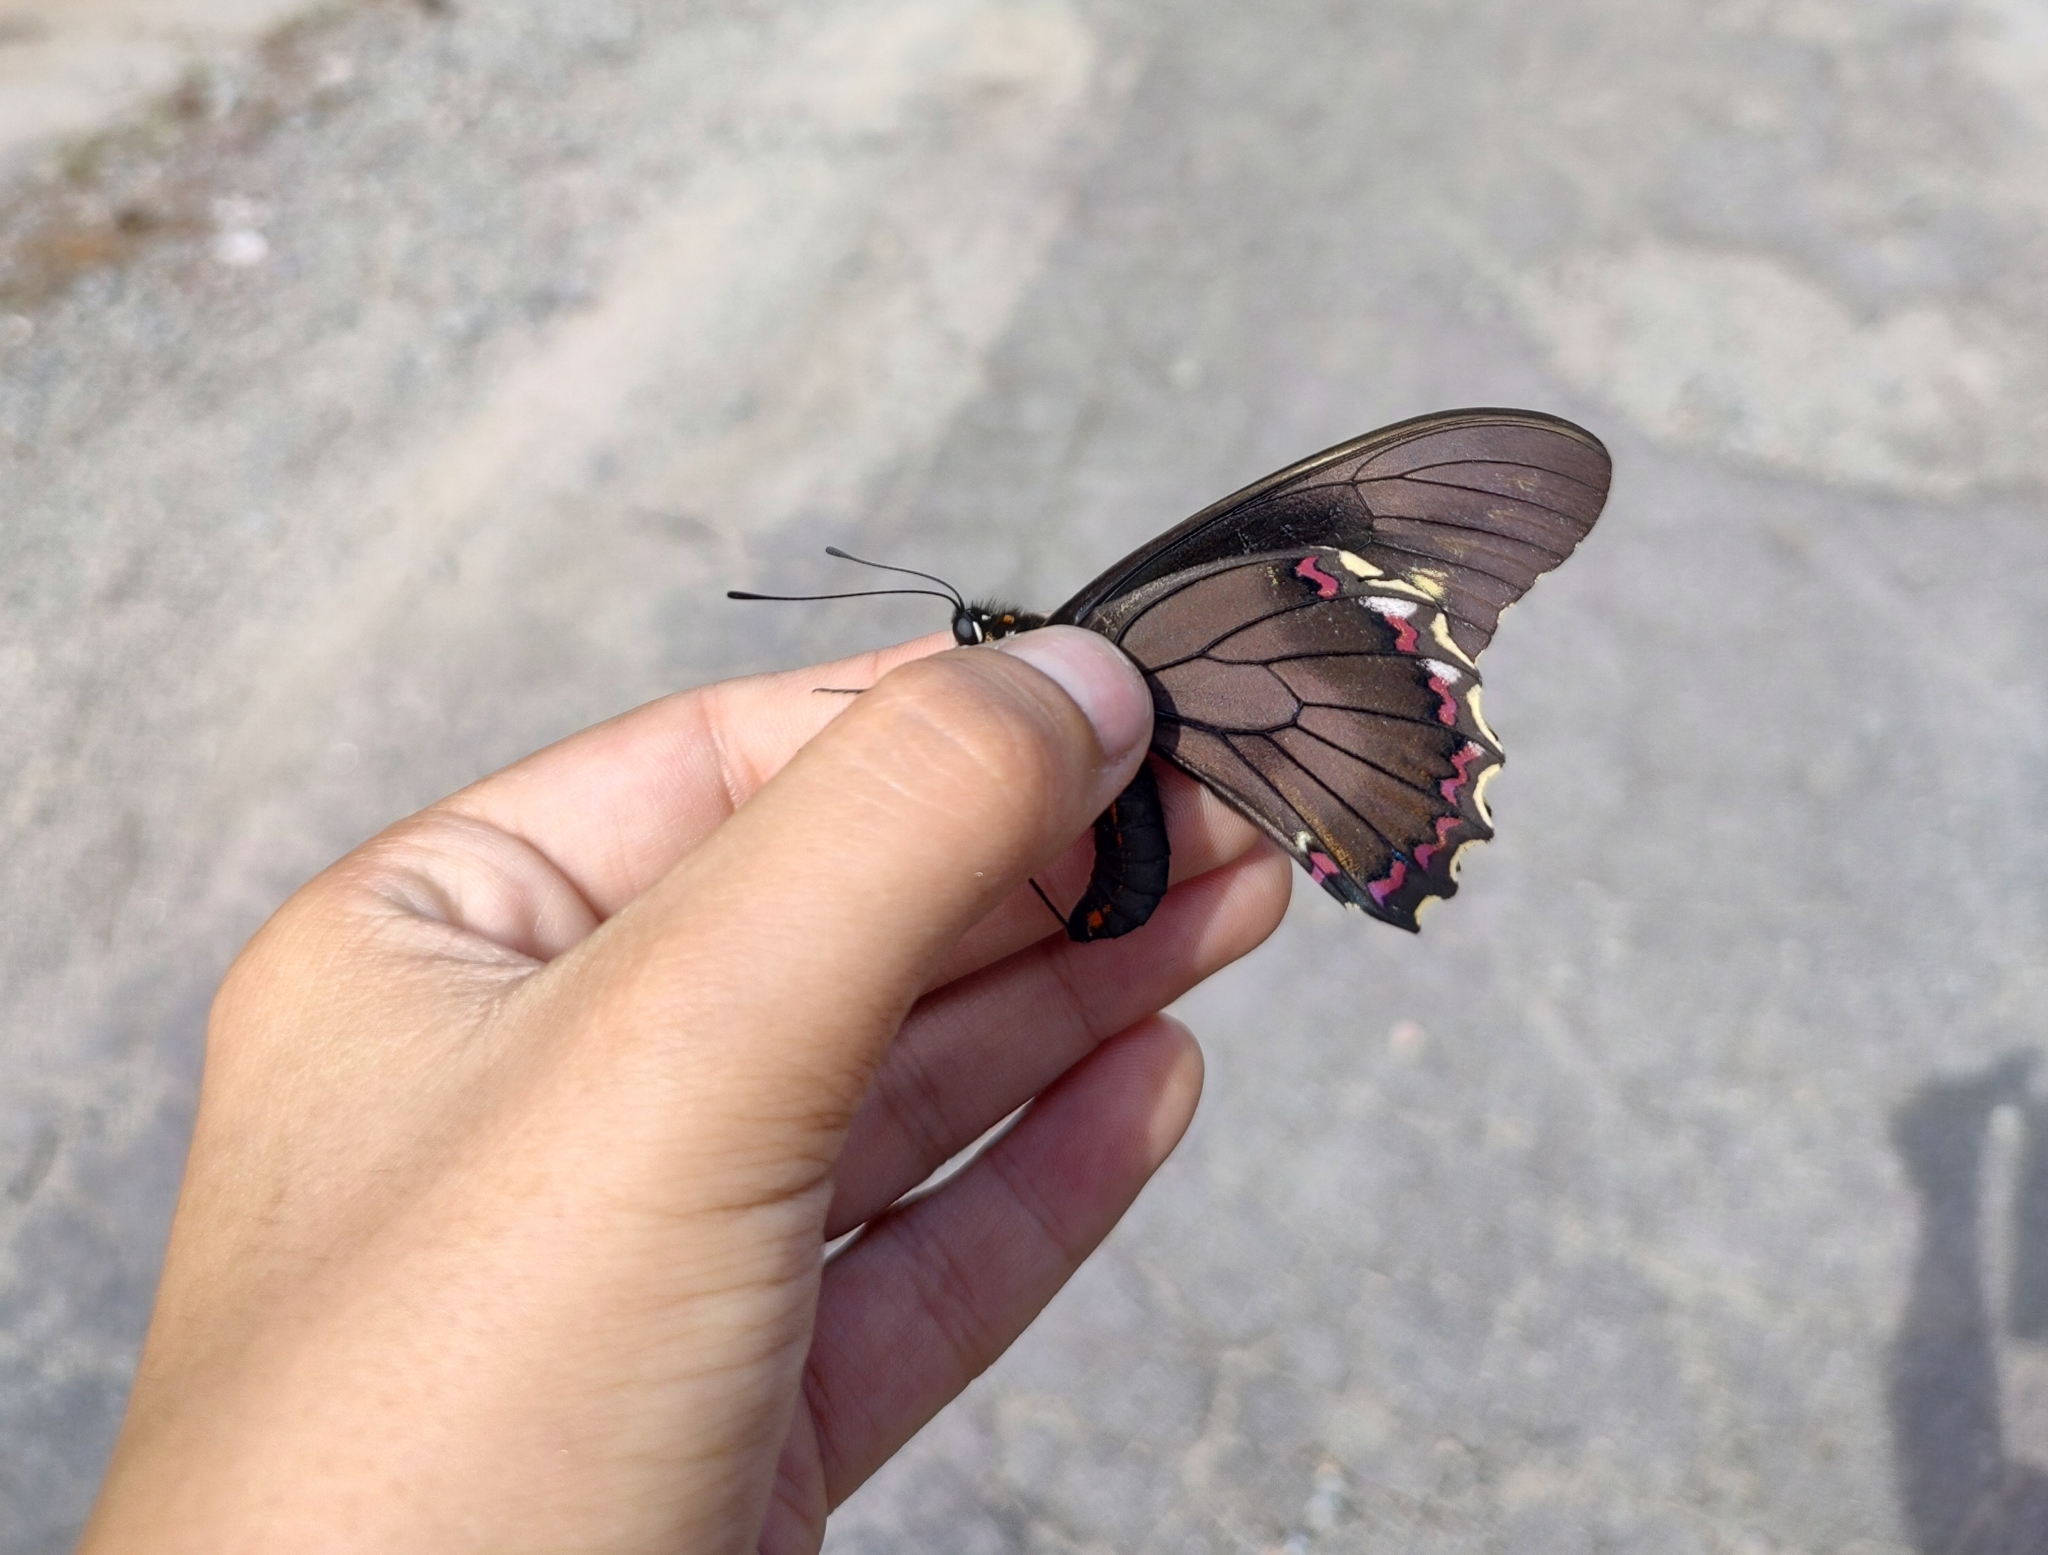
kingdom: Animalia
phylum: Arthropoda
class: Insecta
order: Lepidoptera
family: Papilionidae
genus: Battus
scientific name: Battus polydamas
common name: Polydamas swallowtail
